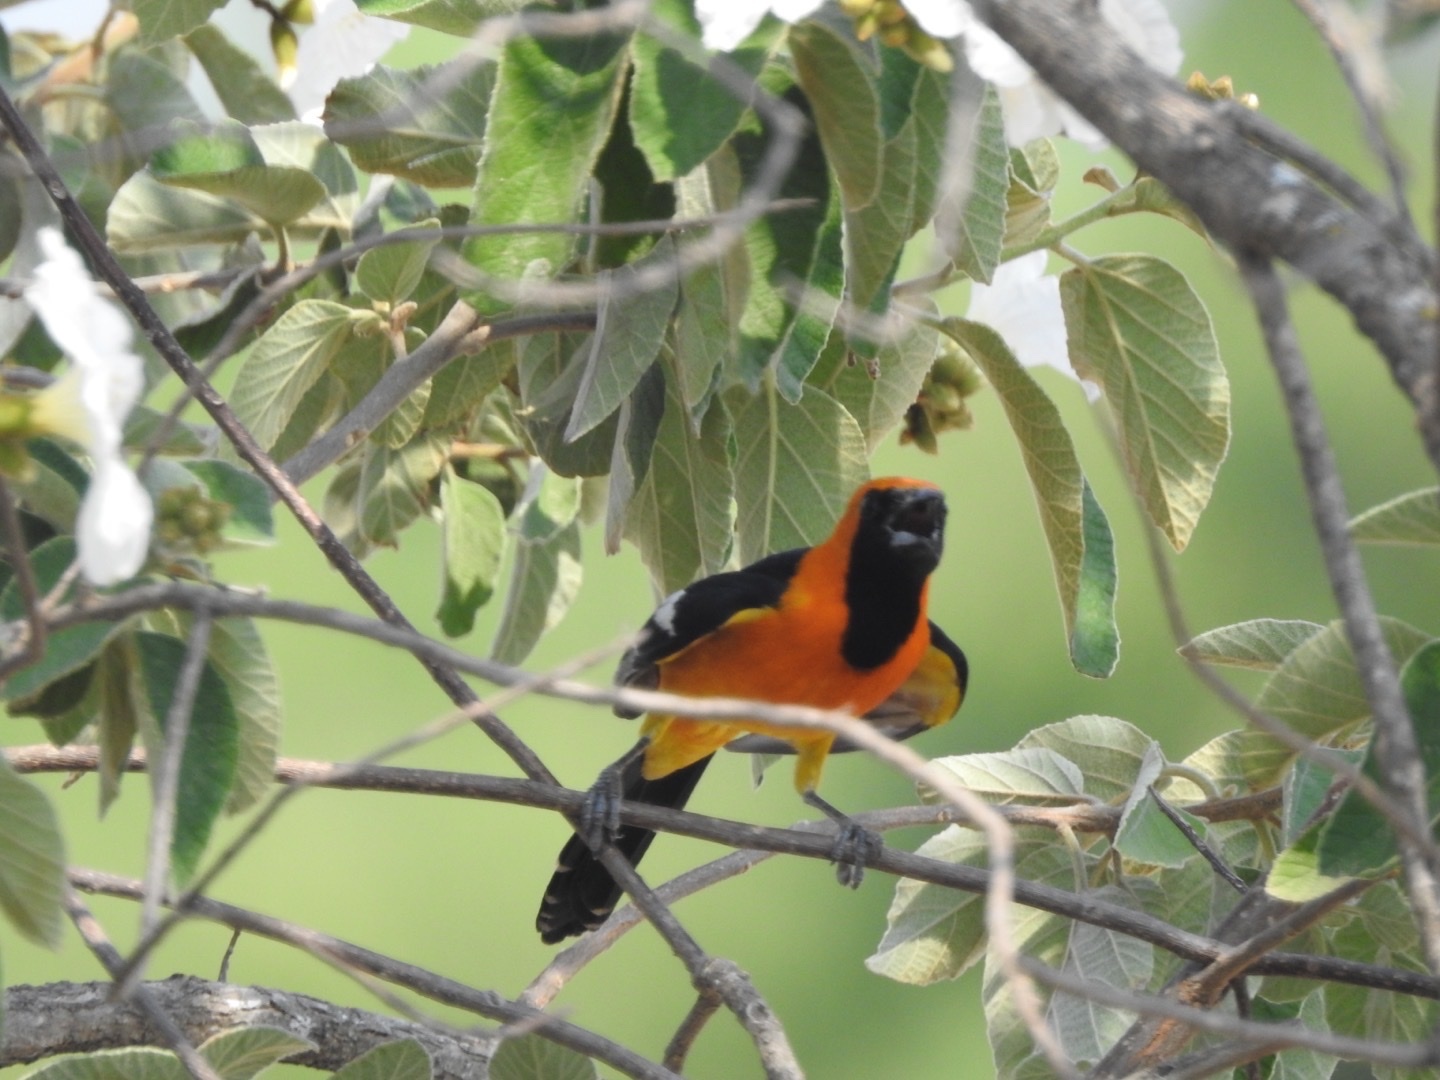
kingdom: Animalia
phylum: Chordata
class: Aves
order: Passeriformes
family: Icteridae
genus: Icterus
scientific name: Icterus cucullatus
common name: Hooded oriole
